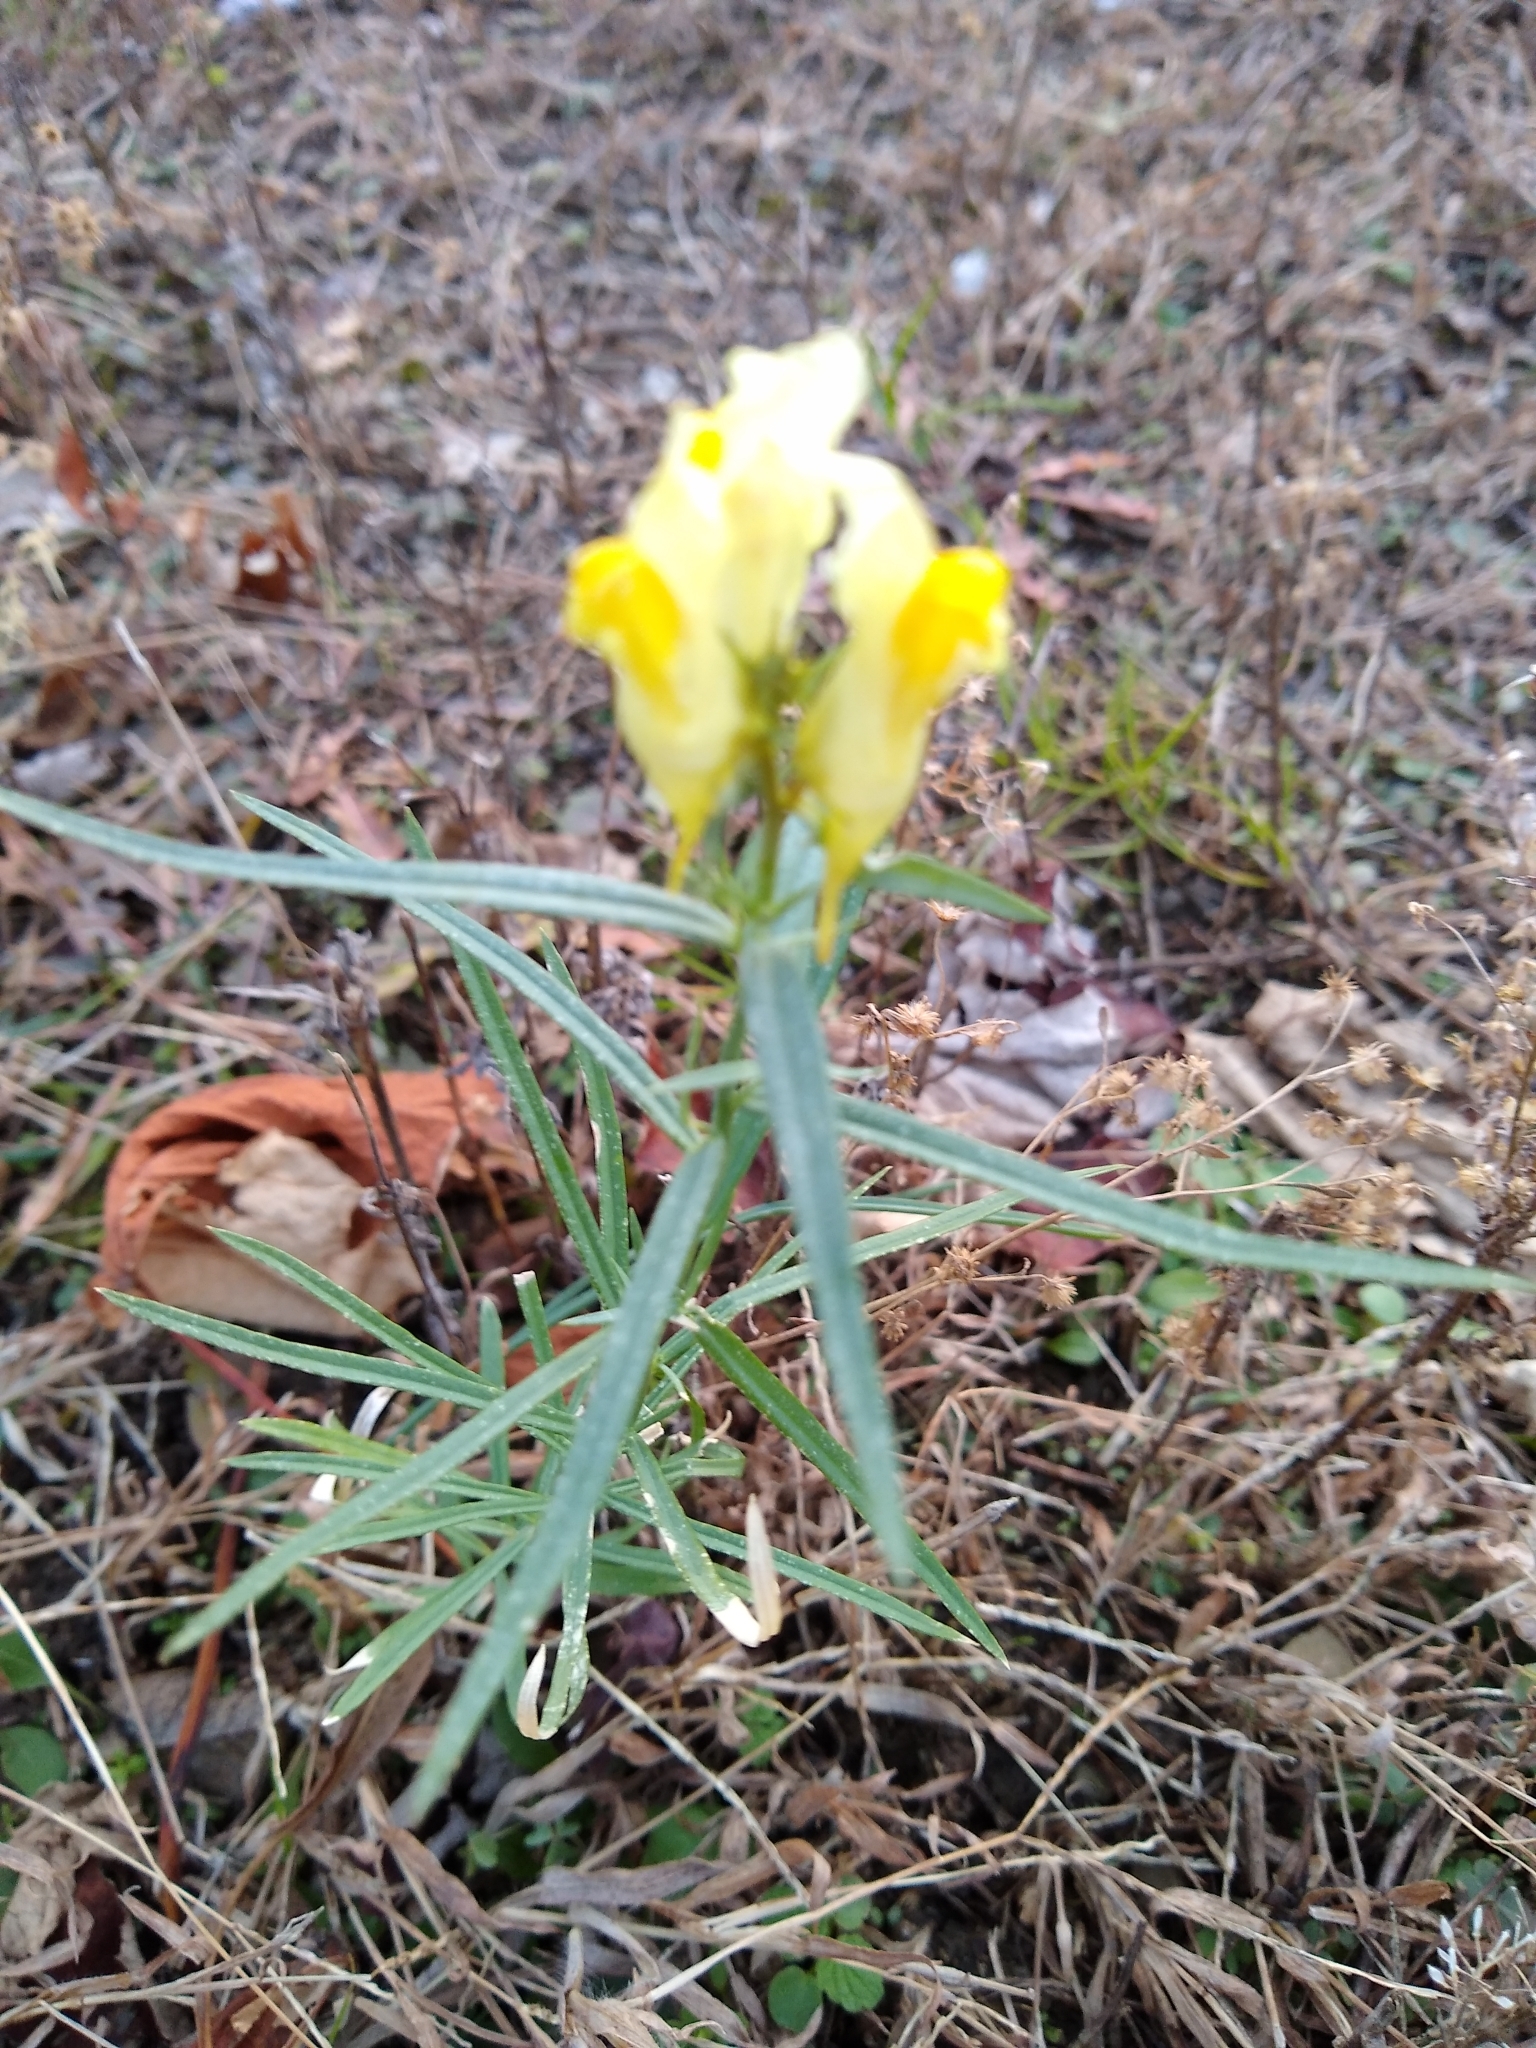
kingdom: Plantae
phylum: Tracheophyta
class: Magnoliopsida
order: Lamiales
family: Plantaginaceae
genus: Linaria
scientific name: Linaria vulgaris
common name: Butter and eggs
